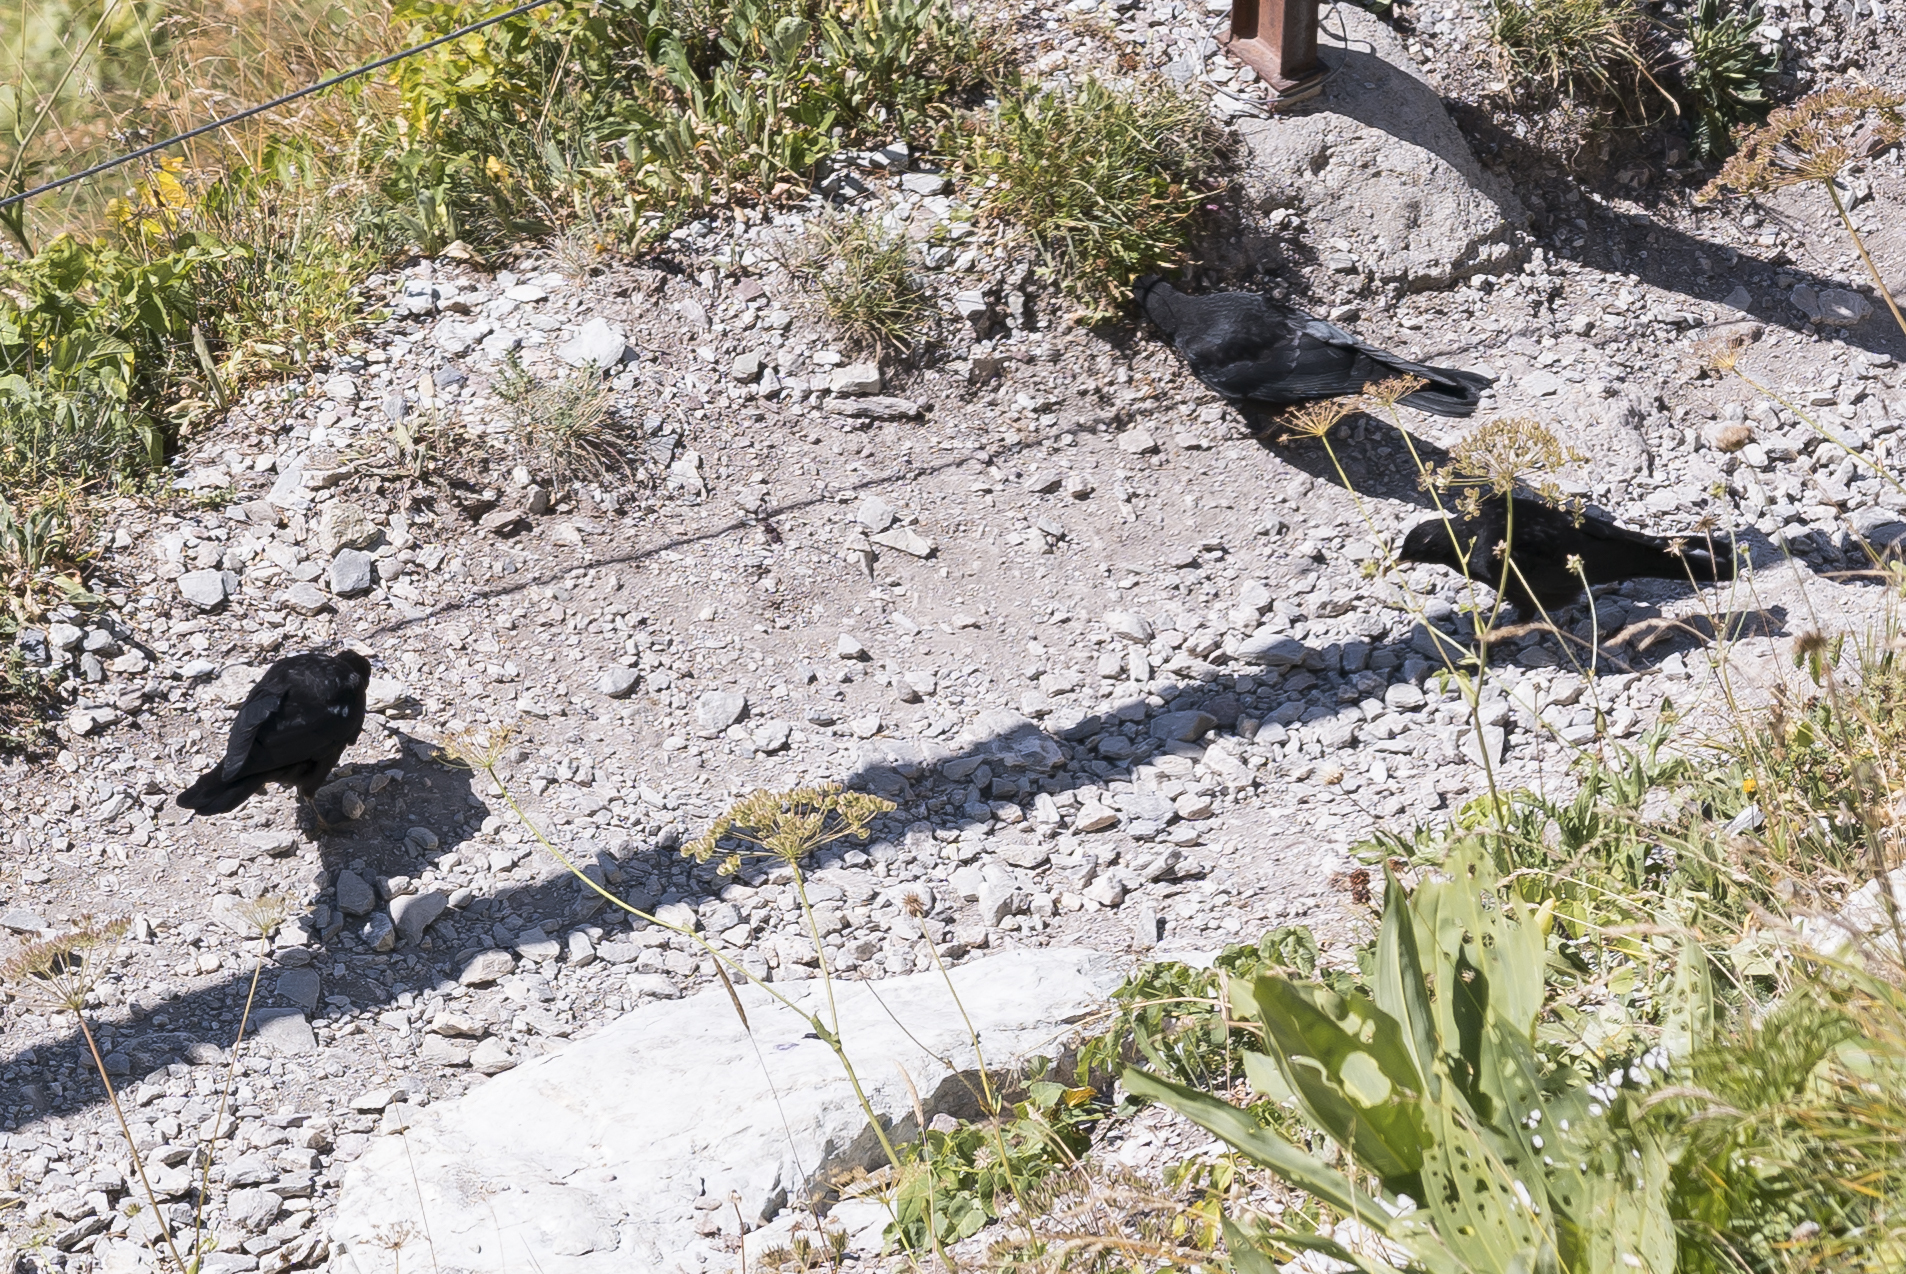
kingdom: Animalia
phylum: Chordata
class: Aves
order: Passeriformes
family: Corvidae
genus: Pyrrhocorax
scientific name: Pyrrhocorax graculus
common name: Alpine chough
